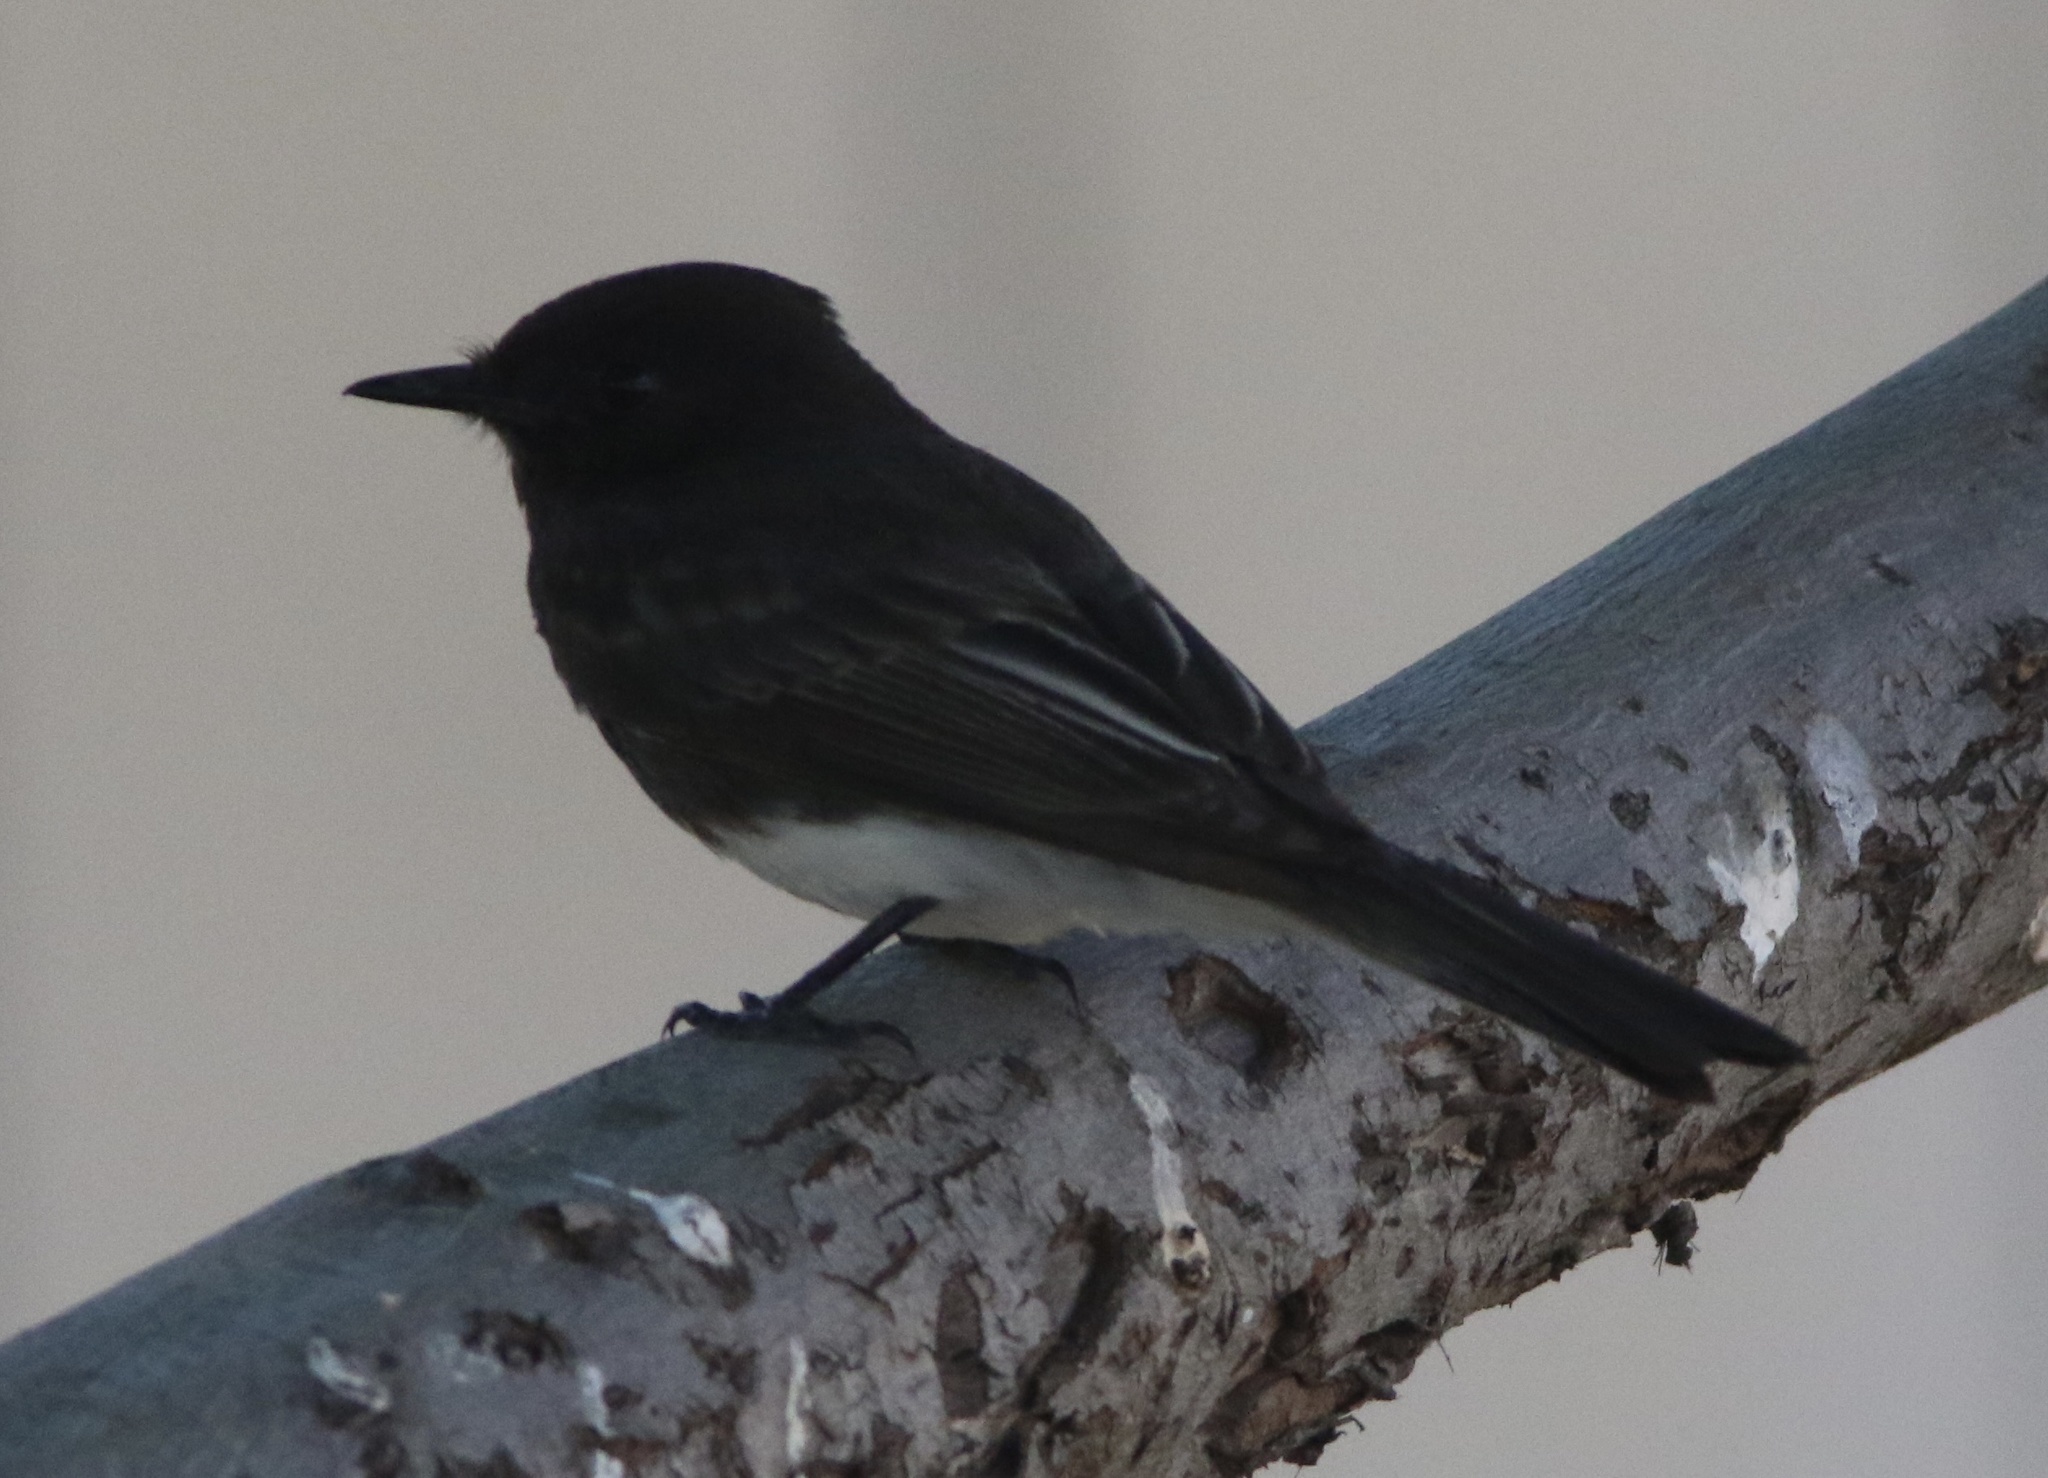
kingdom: Animalia
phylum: Chordata
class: Aves
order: Passeriformes
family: Tyrannidae
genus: Sayornis
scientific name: Sayornis nigricans
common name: Black phoebe
